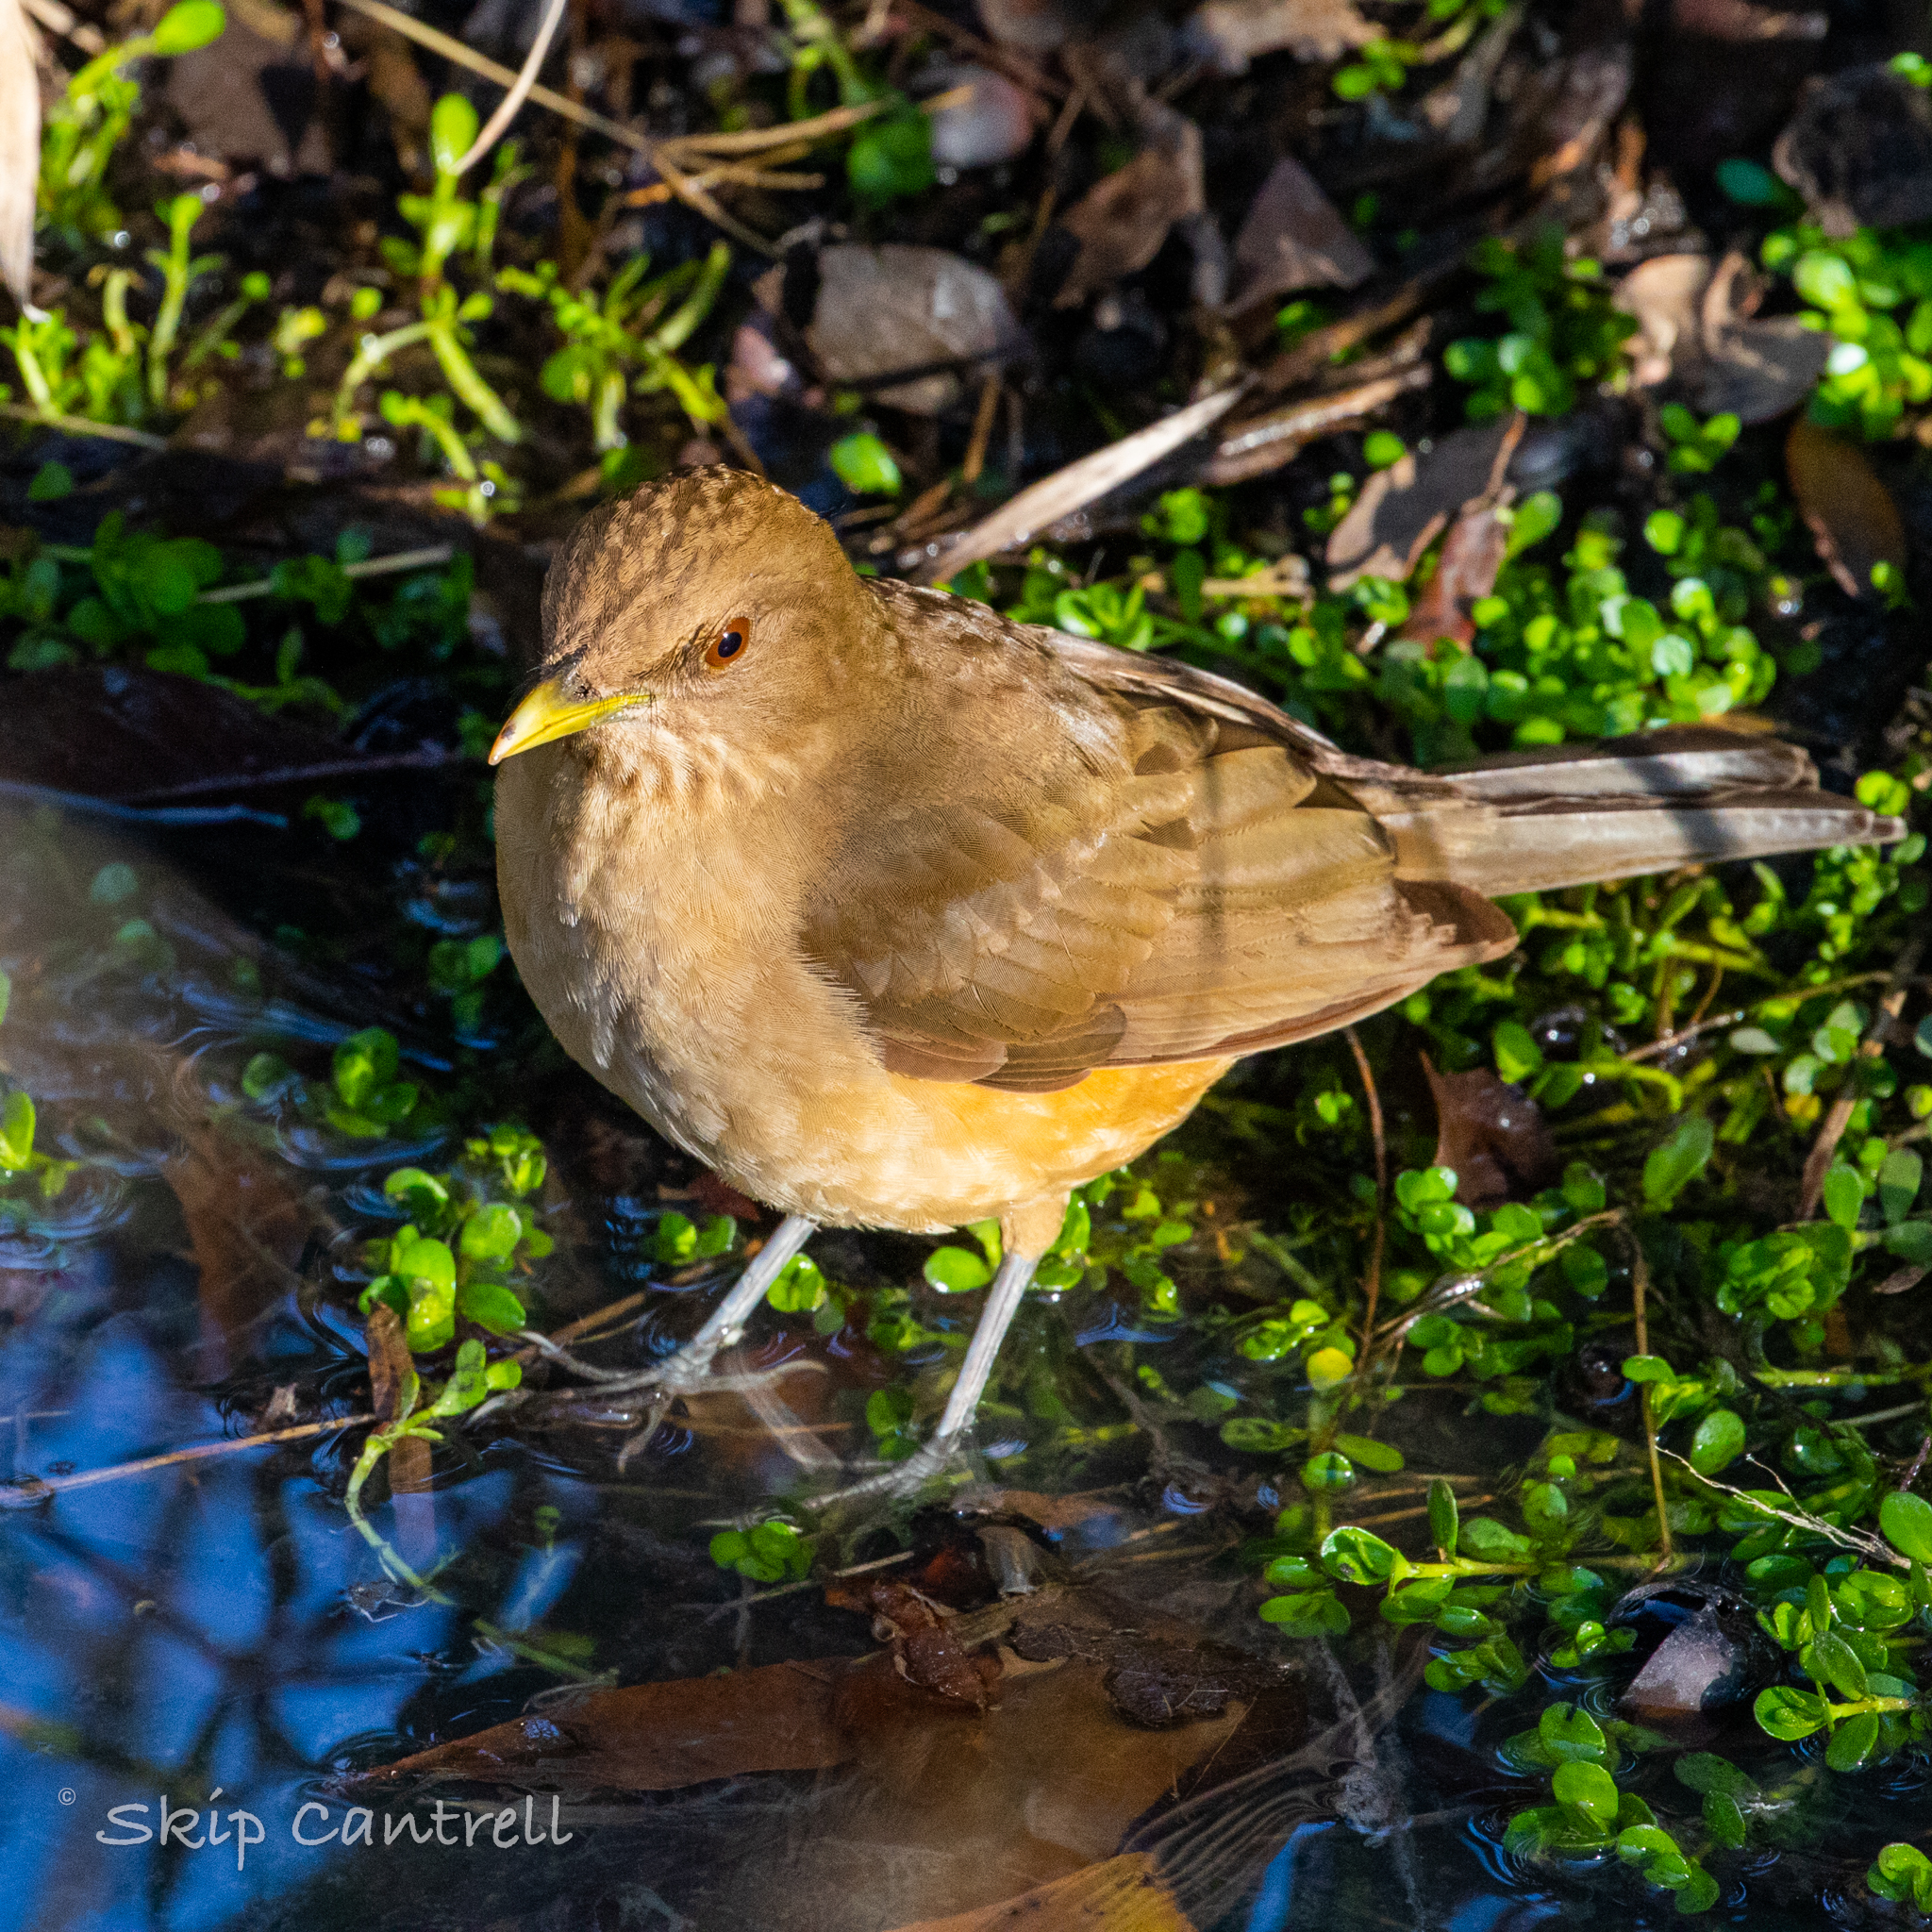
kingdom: Animalia
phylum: Chordata
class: Aves
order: Passeriformes
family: Turdidae
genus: Turdus
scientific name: Turdus grayi
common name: Clay-colored thrush
